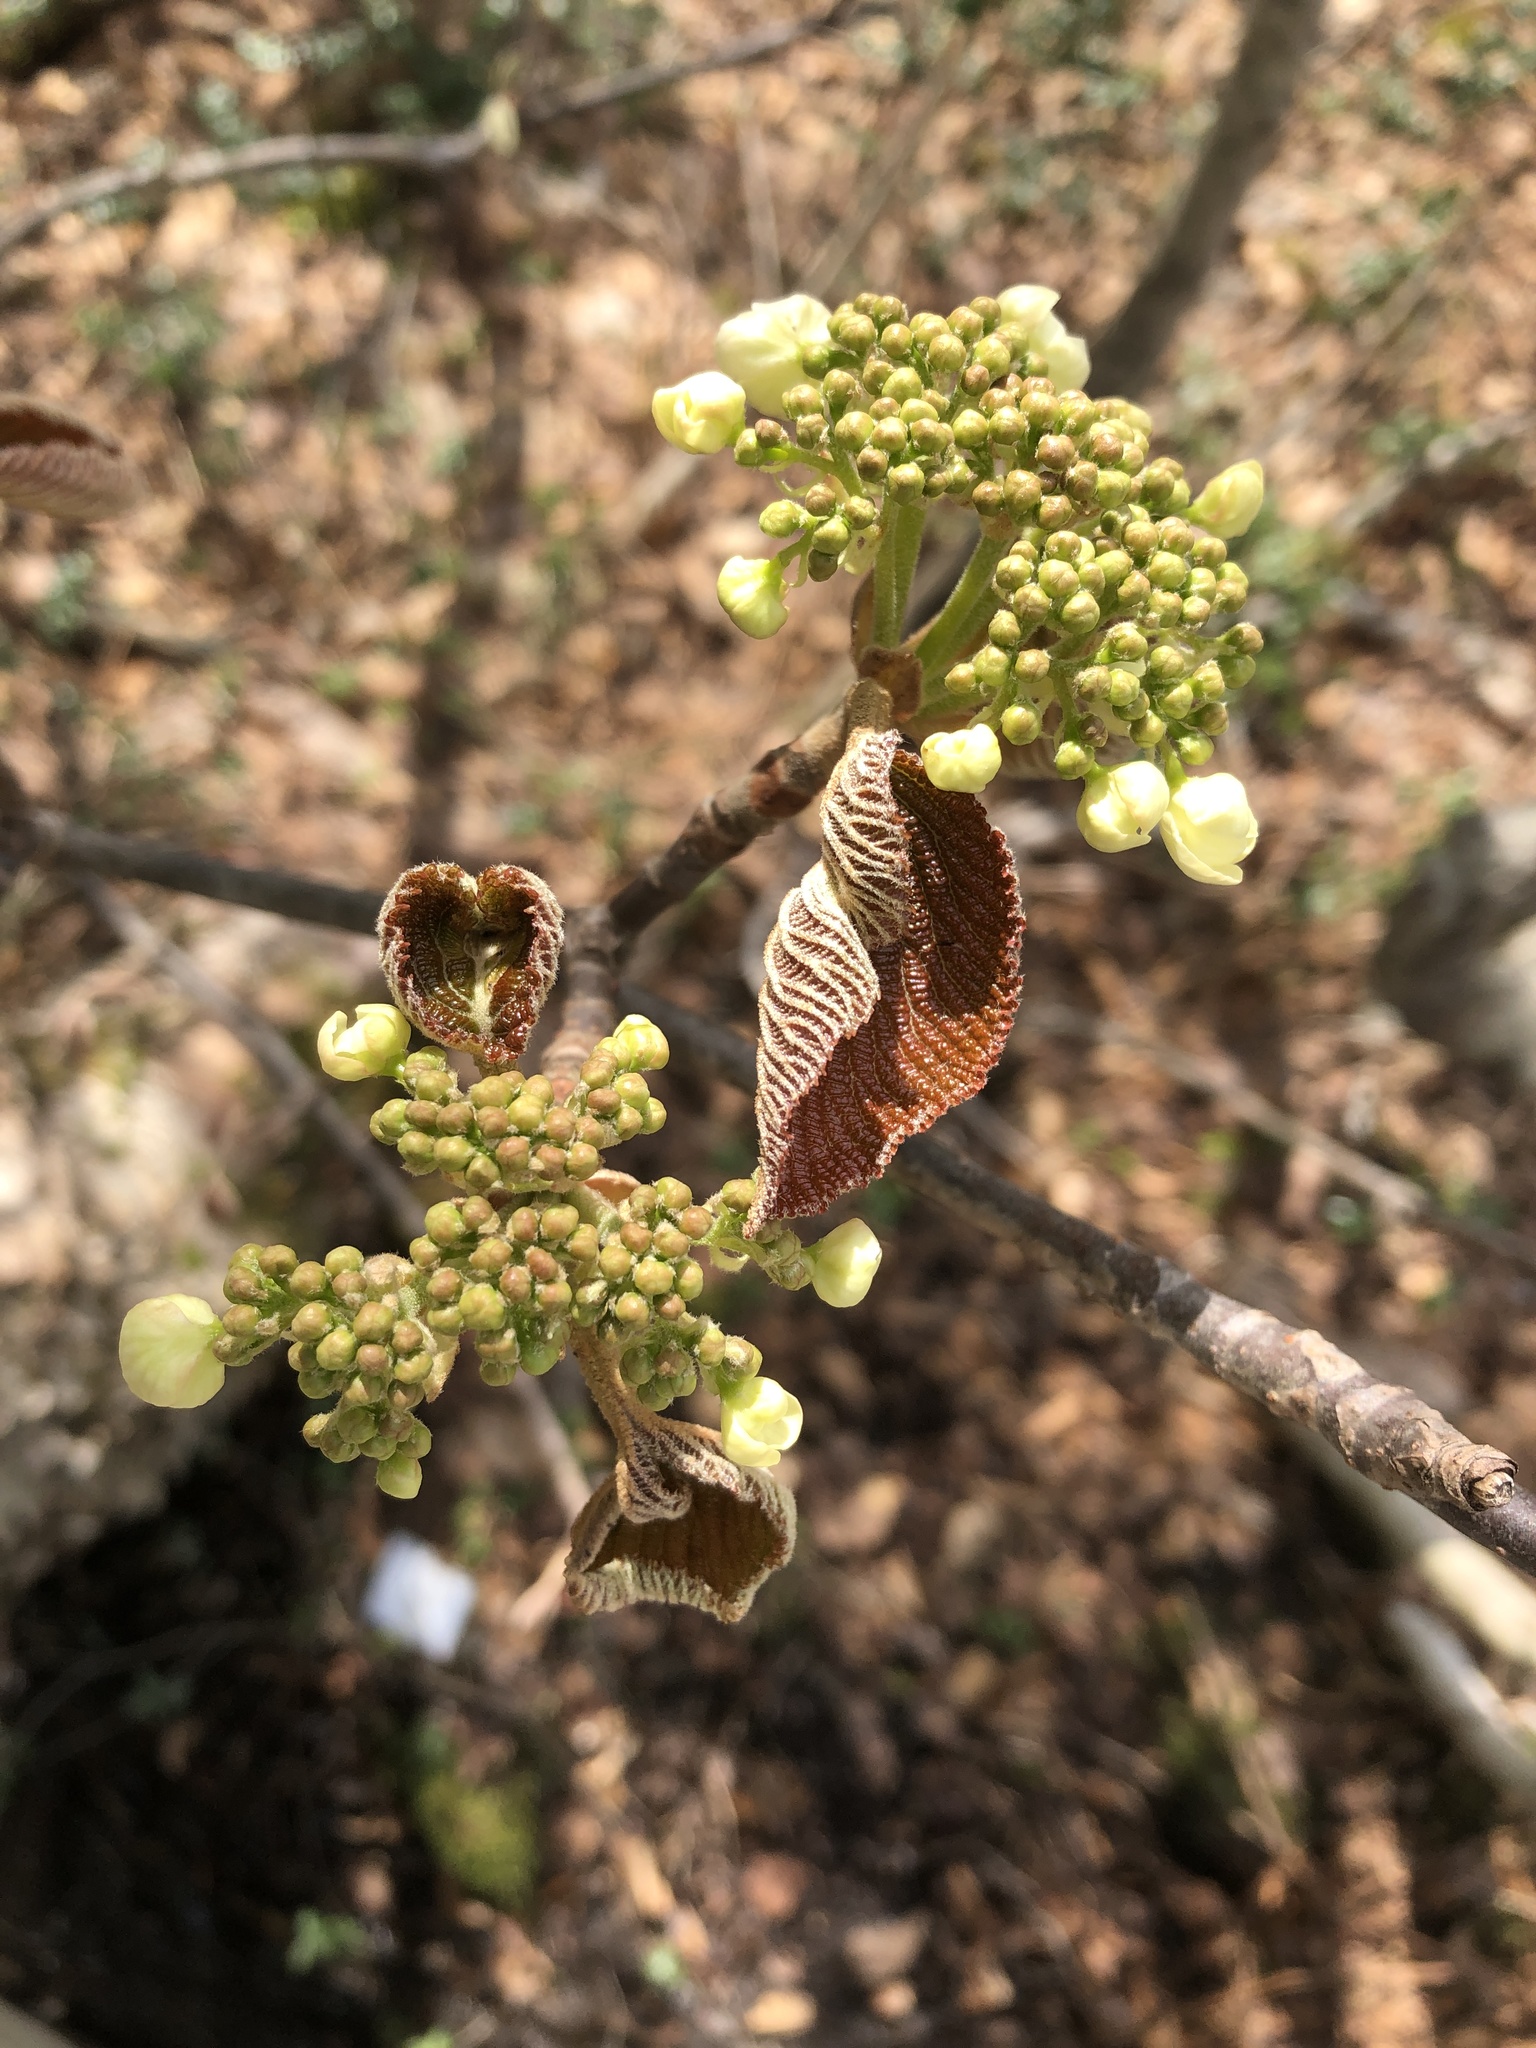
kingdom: Plantae
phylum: Tracheophyta
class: Magnoliopsida
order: Dipsacales
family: Viburnaceae
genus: Viburnum
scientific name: Viburnum furcatum
